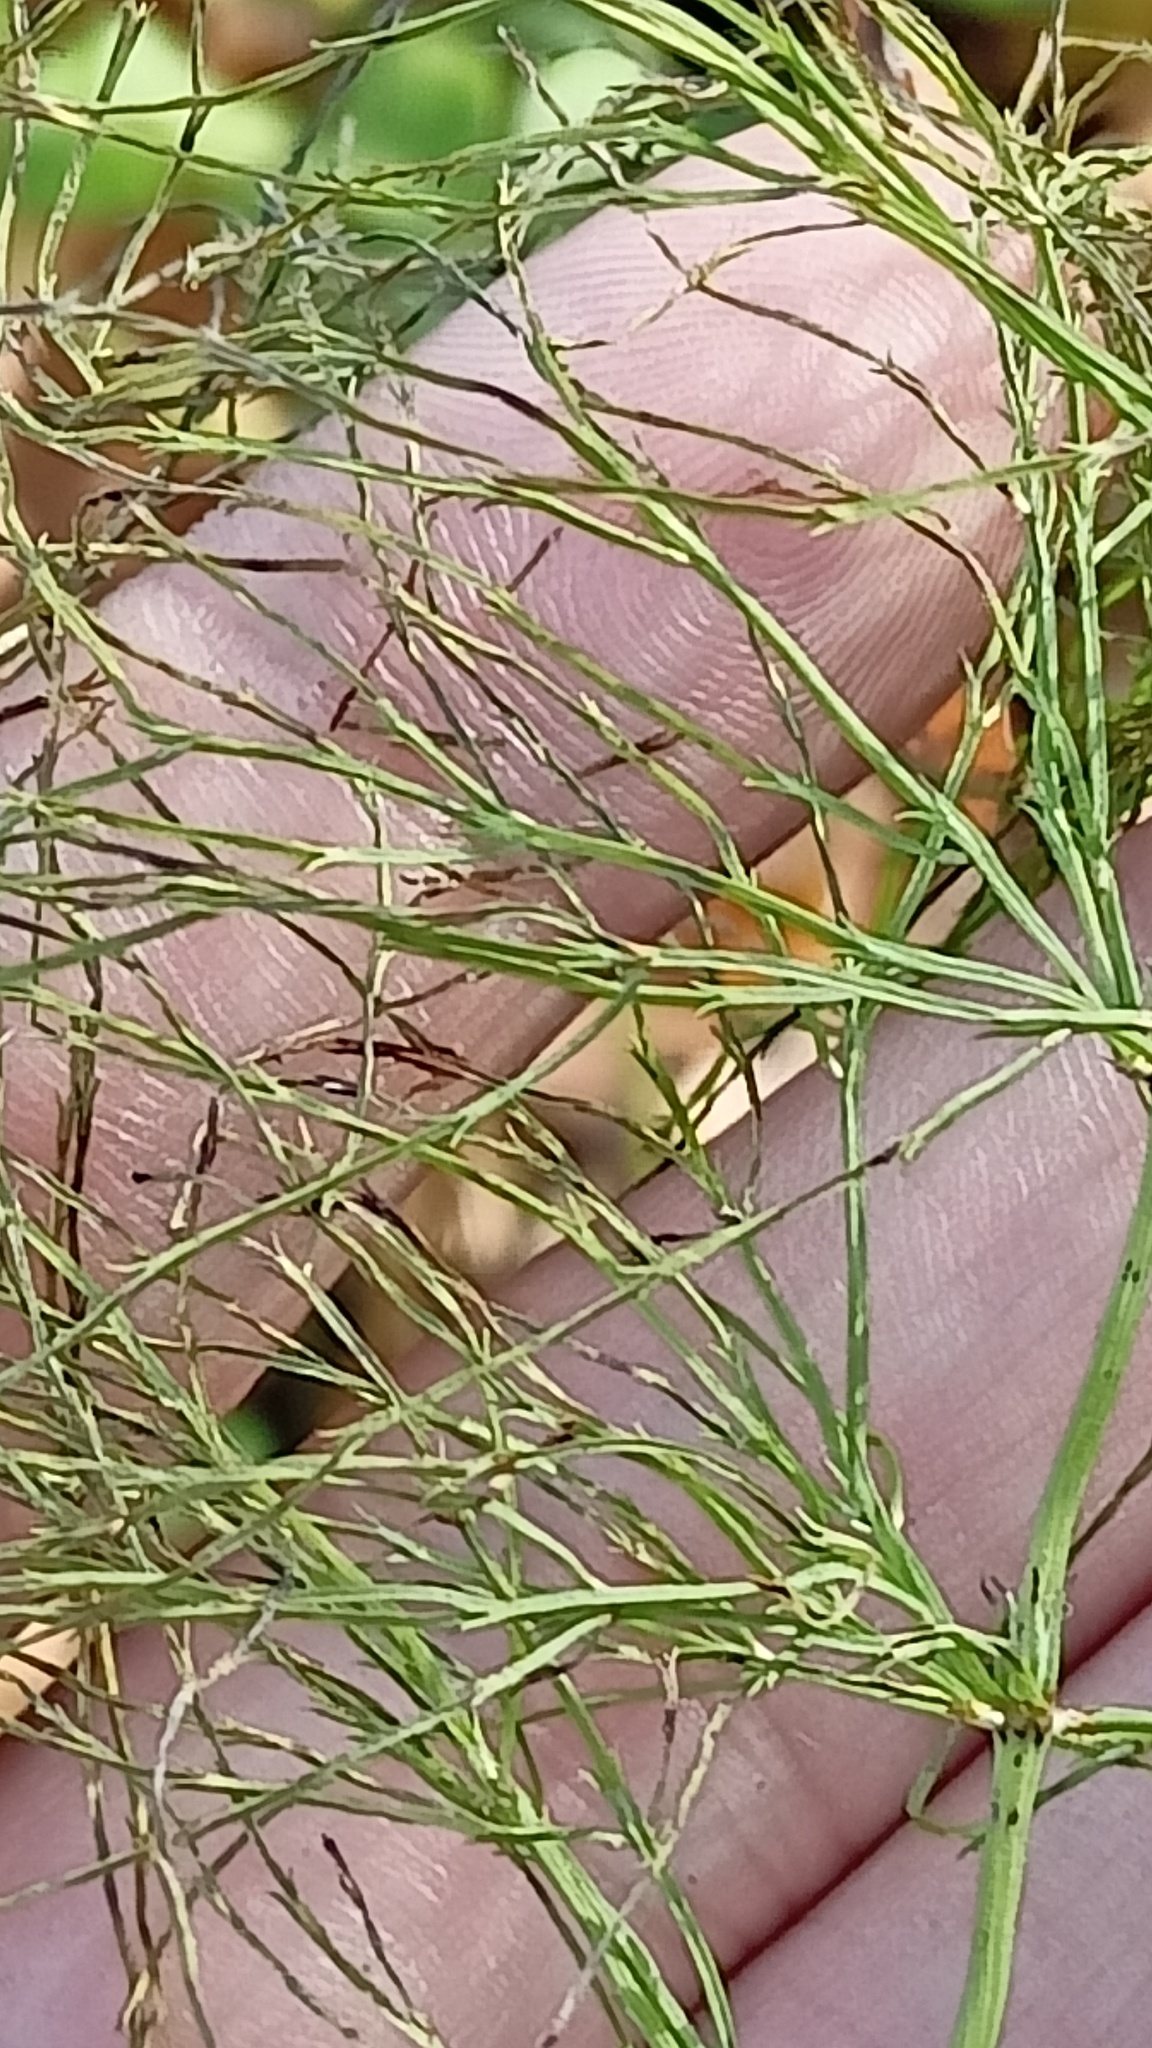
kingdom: Plantae
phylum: Tracheophyta
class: Polypodiopsida
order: Equisetales
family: Equisetaceae
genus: Equisetum
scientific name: Equisetum sylvaticum
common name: Wood horsetail
